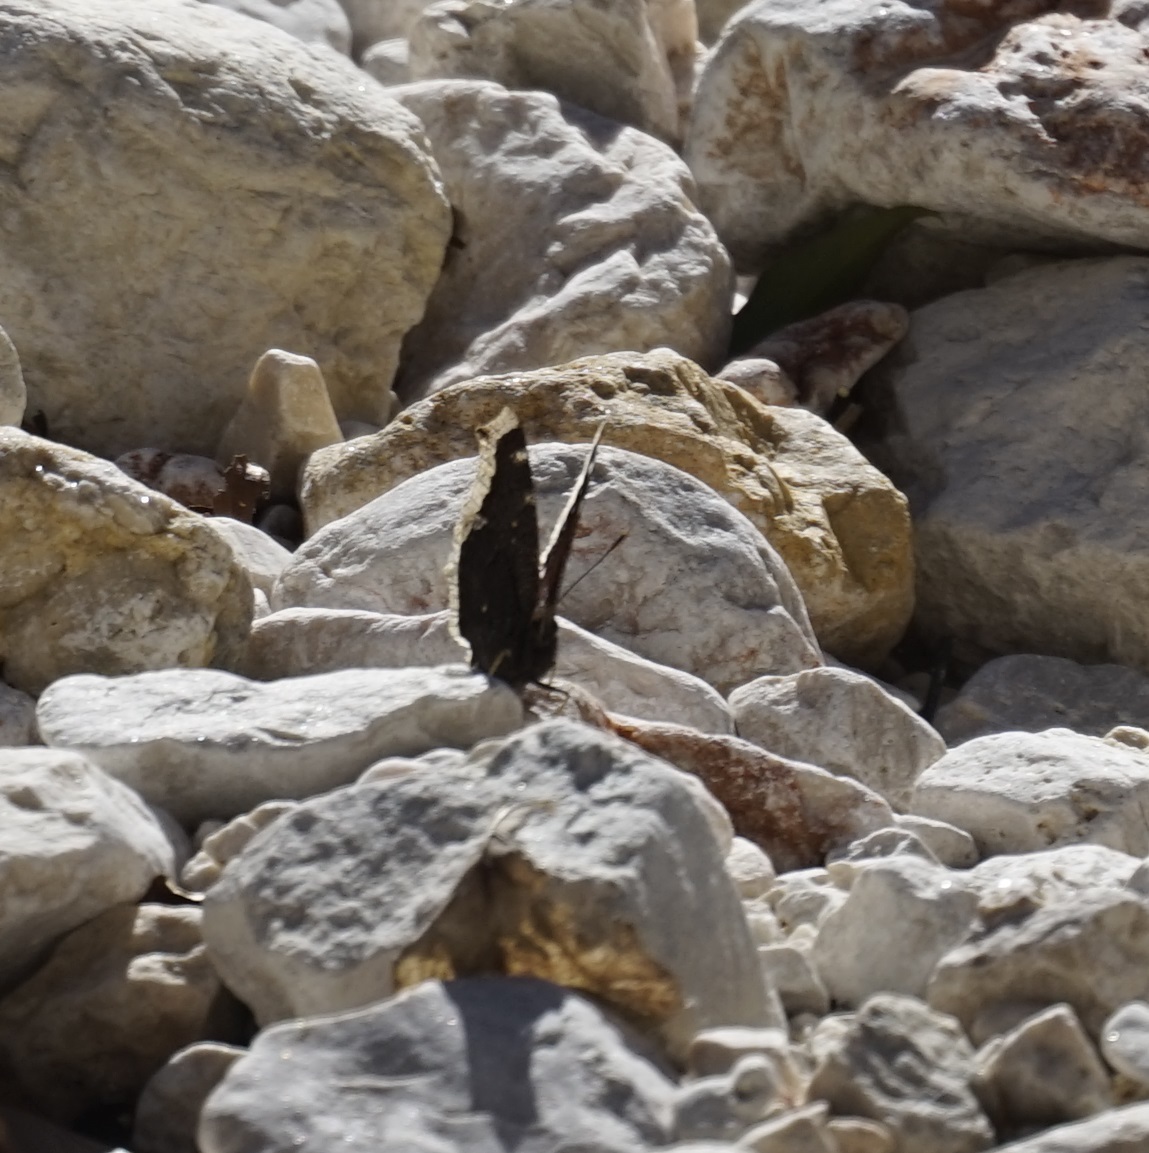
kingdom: Animalia
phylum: Arthropoda
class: Insecta
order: Lepidoptera
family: Nymphalidae
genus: Nymphalis
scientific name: Nymphalis antiopa
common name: Camberwell beauty
